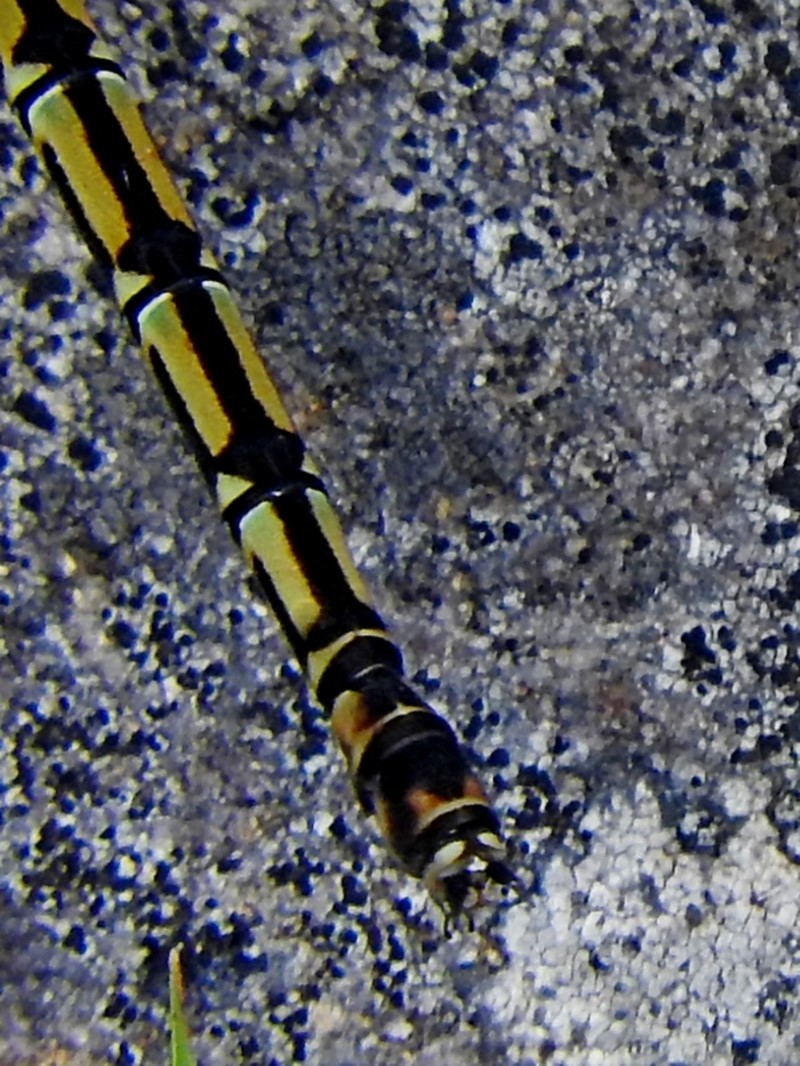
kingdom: Animalia
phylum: Arthropoda
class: Insecta
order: Odonata
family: Lestoideidae
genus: Diphlebia
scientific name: Diphlebia nymphoides
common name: Arrowhead rockmaster
